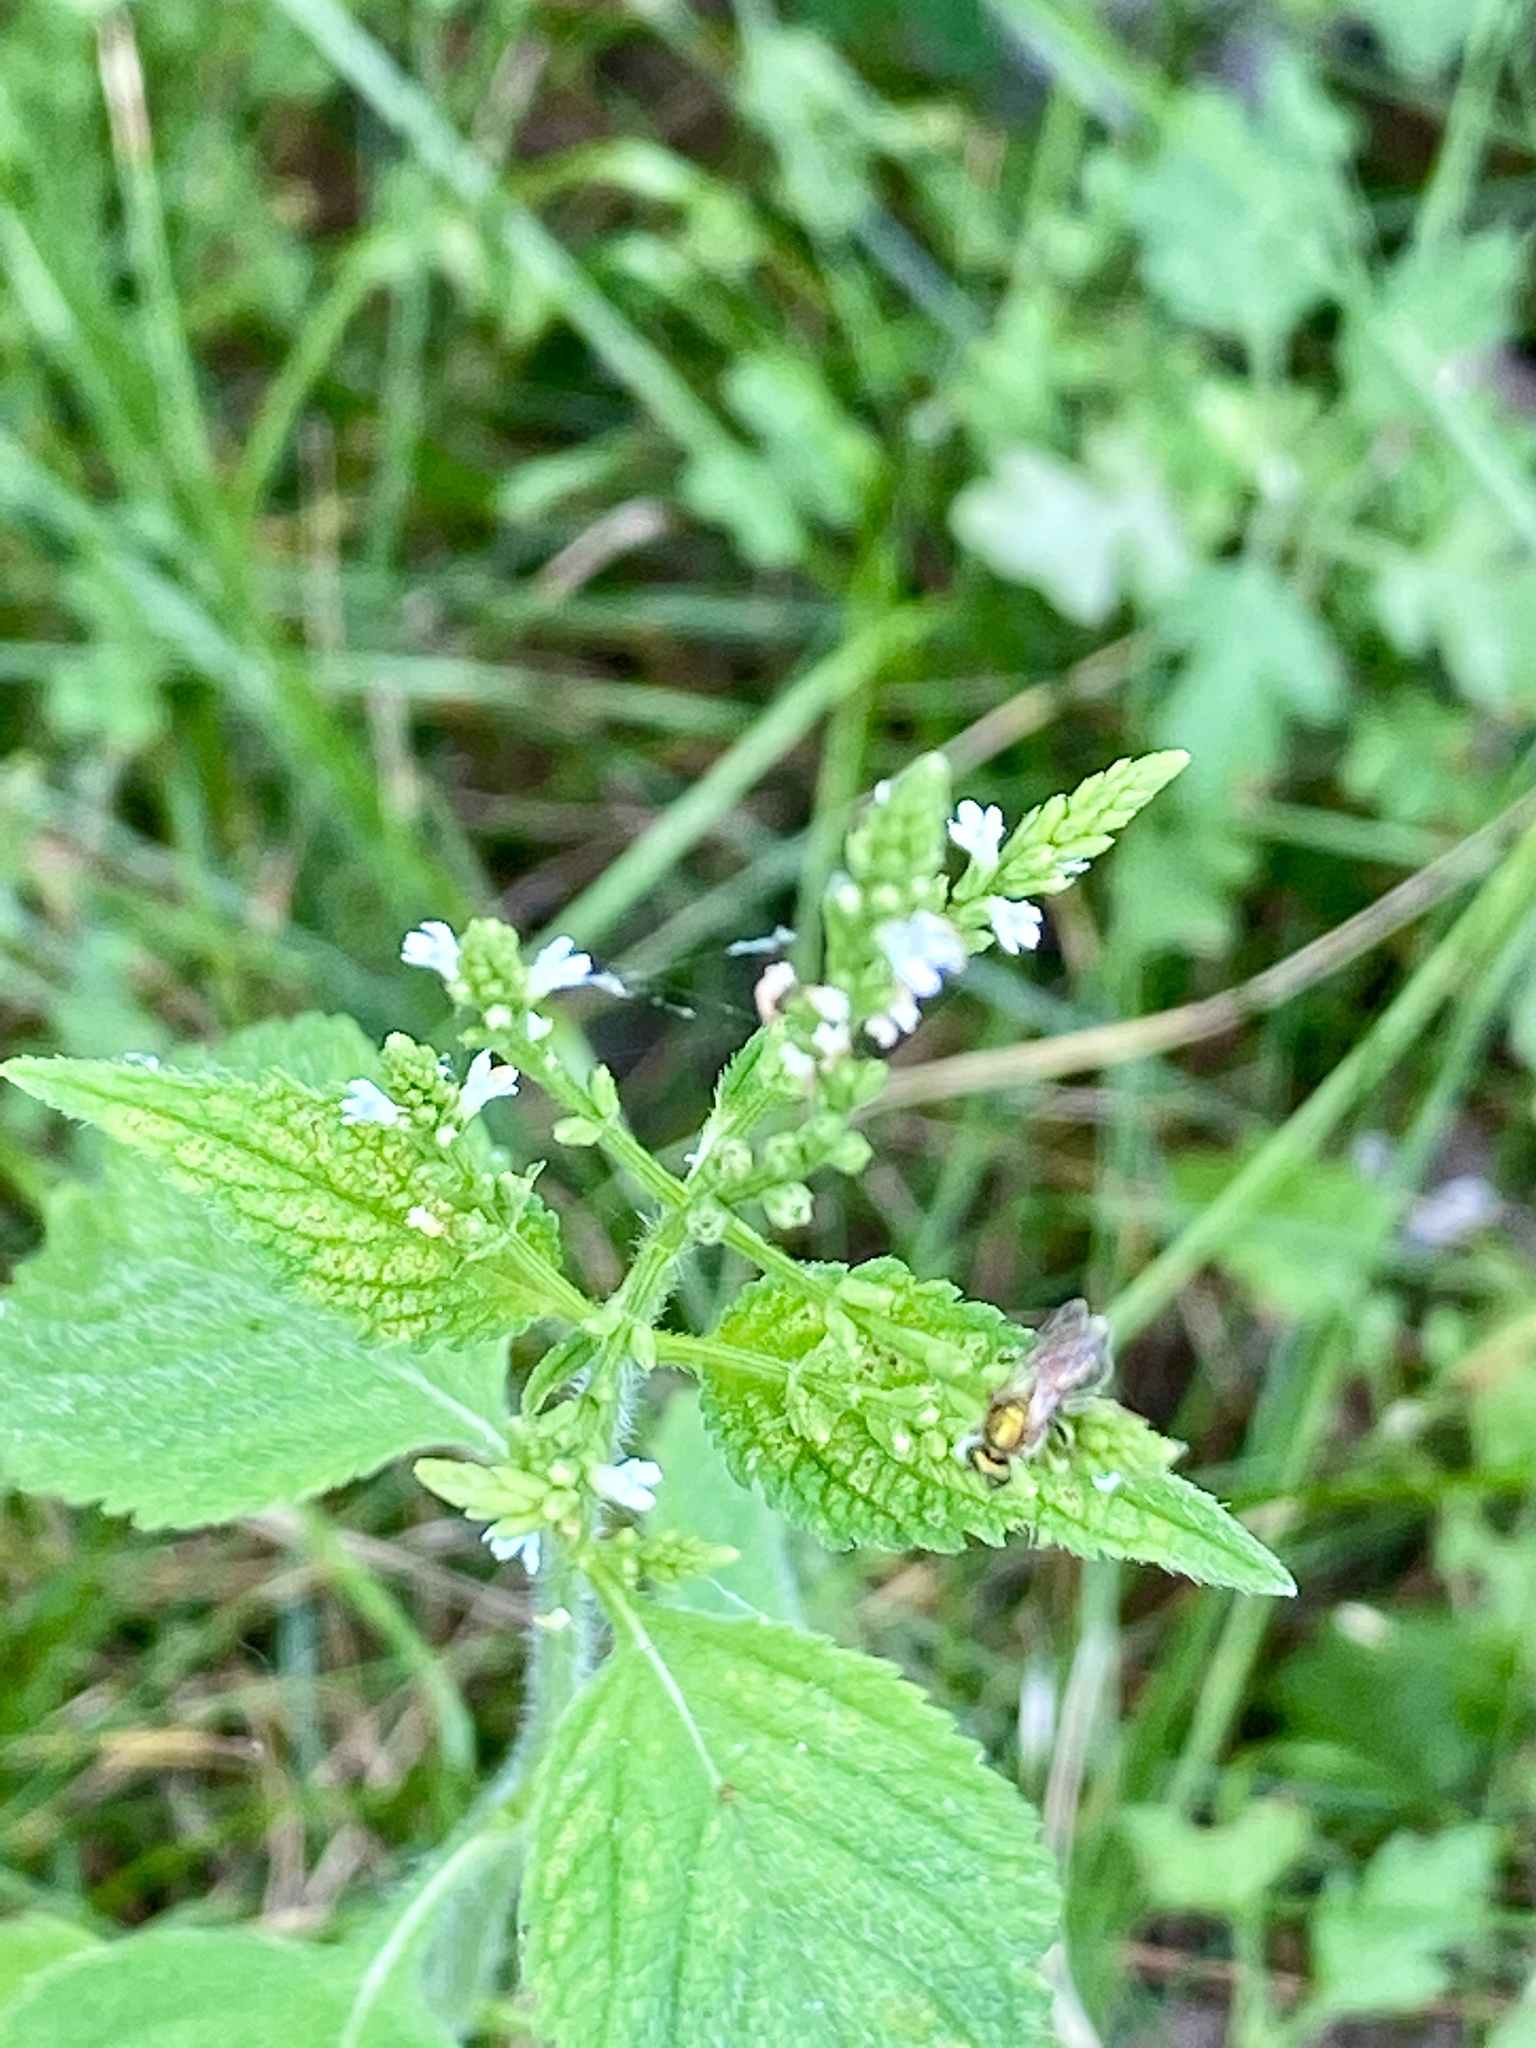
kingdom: Plantae
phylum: Tracheophyta
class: Magnoliopsida
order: Lamiales
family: Verbenaceae
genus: Verbena
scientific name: Verbena urticifolia
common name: Nettle-leaved vervain
